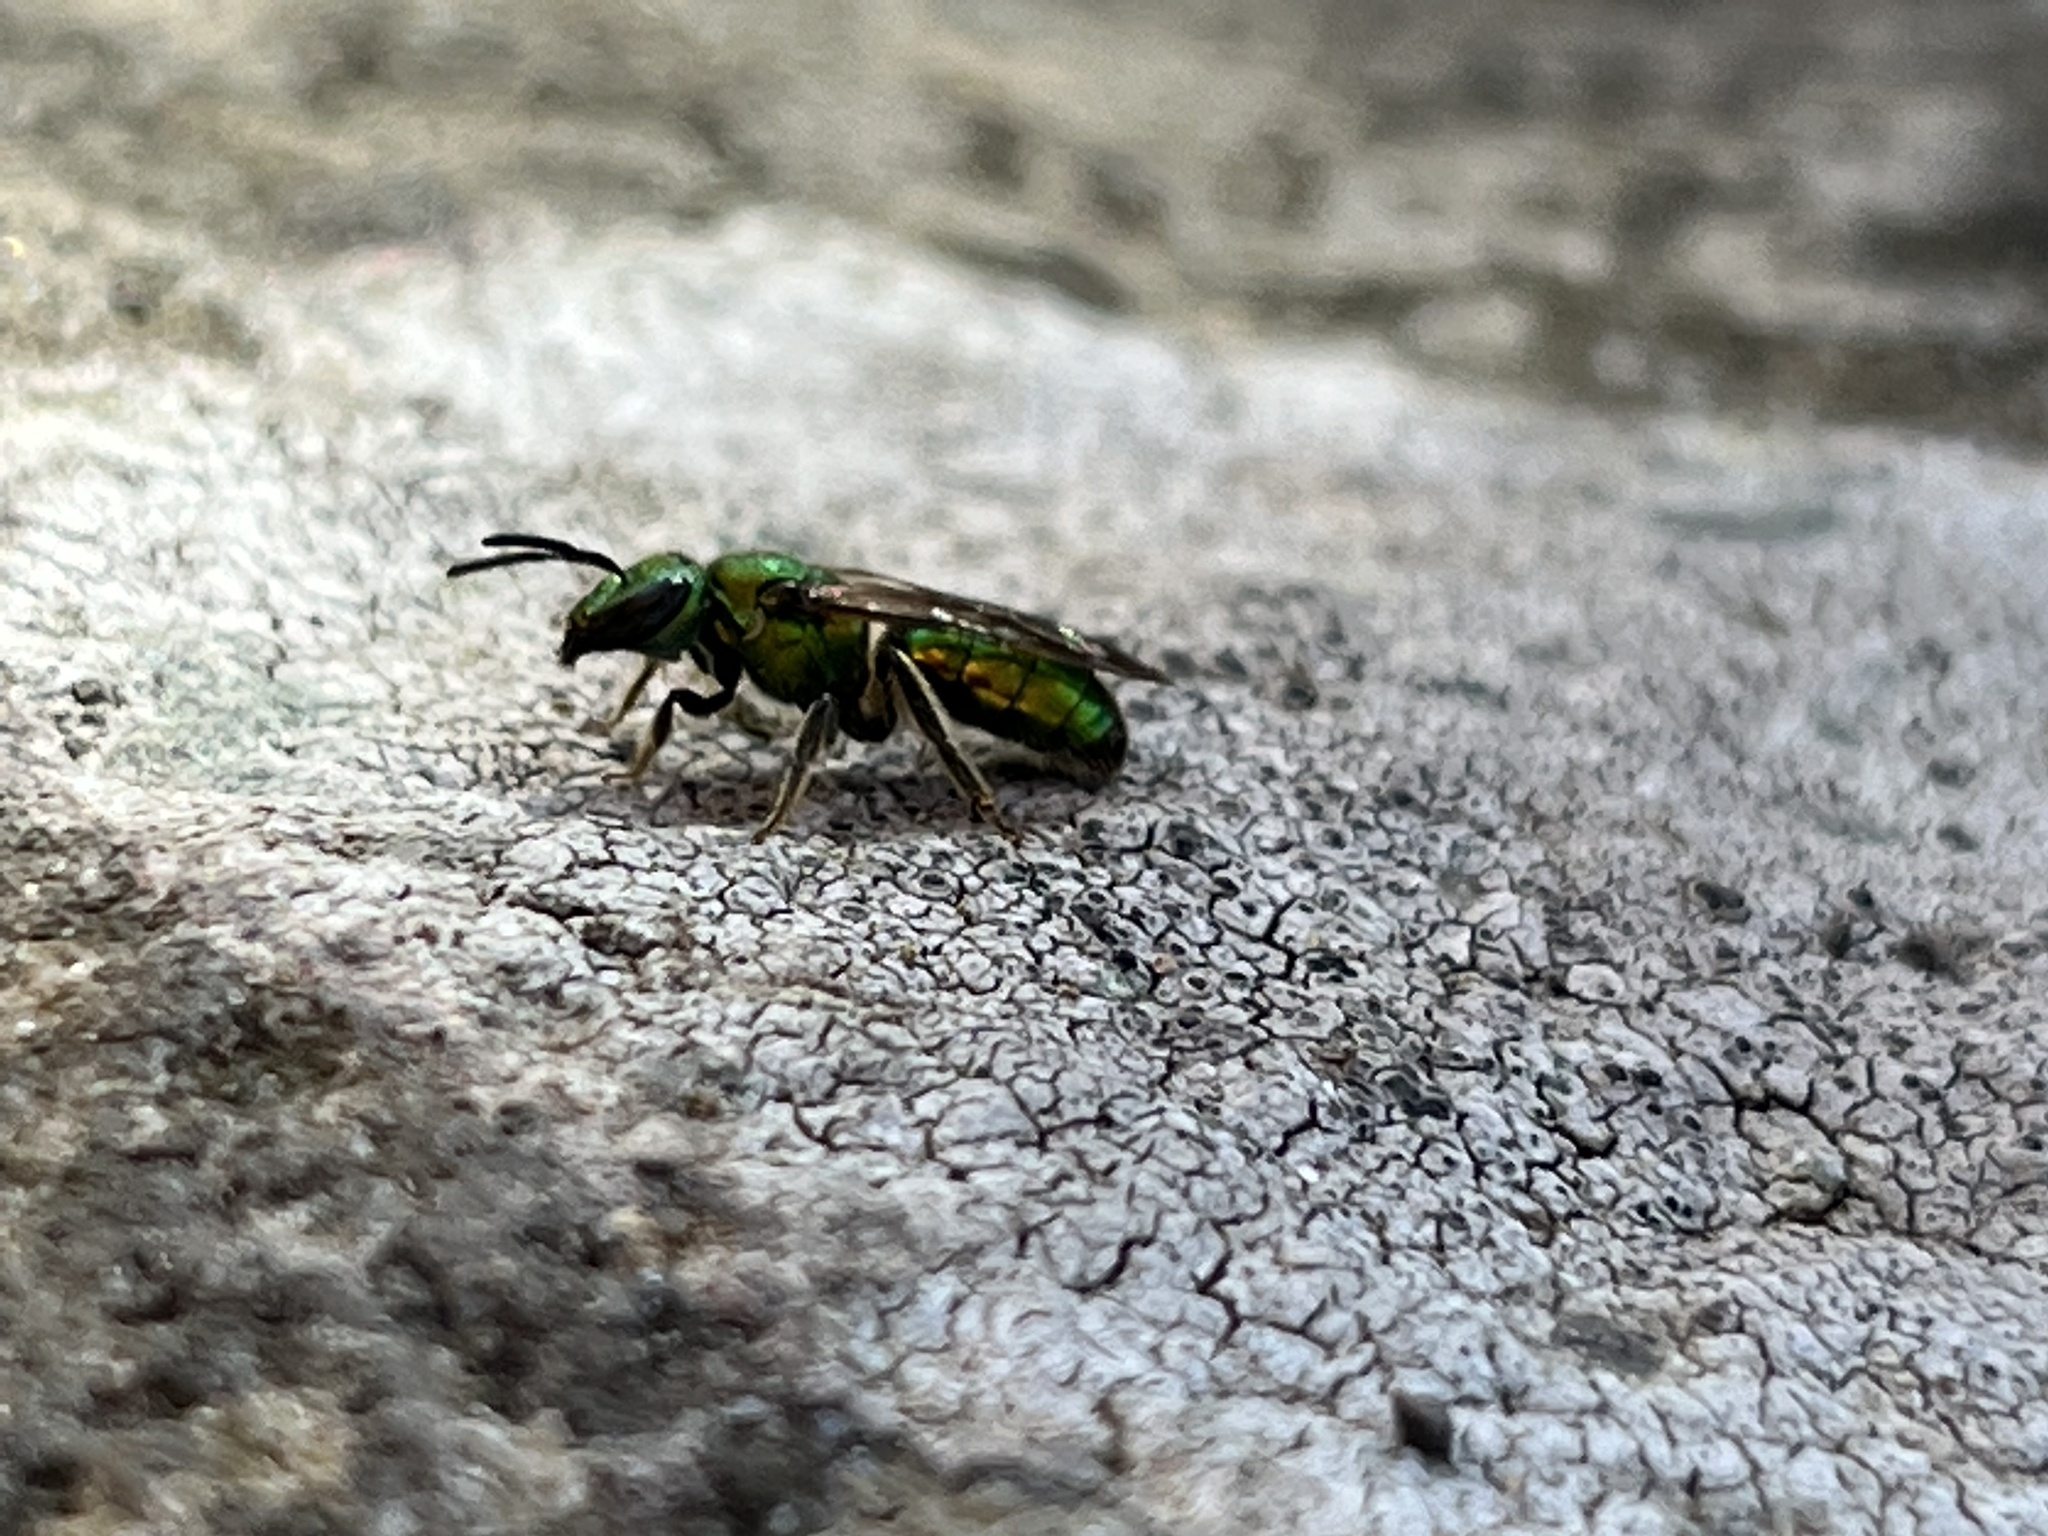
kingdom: Animalia
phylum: Arthropoda
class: Insecta
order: Hymenoptera
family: Halictidae
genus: Augochlora
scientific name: Augochlora pura
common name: Pure green sweat bee
